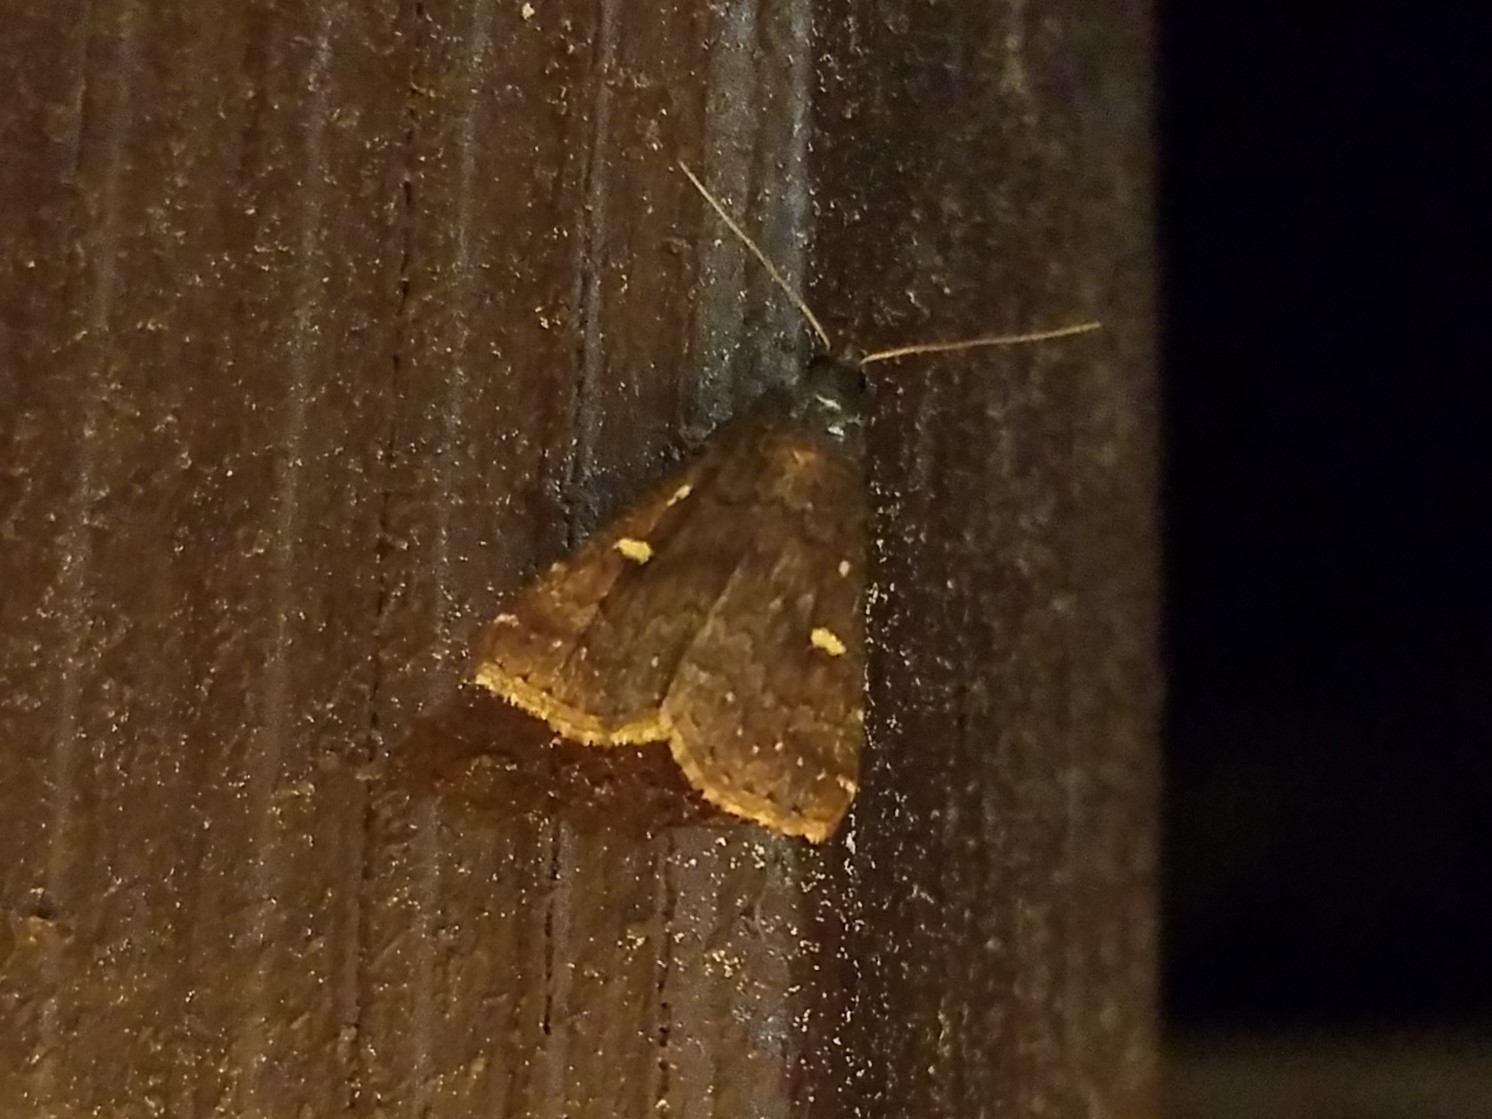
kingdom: Animalia
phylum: Arthropoda
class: Insecta
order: Lepidoptera
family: Erebidae
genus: Tetanolita
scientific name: Tetanolita mynesalis
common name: Smoky tetanolita moth
